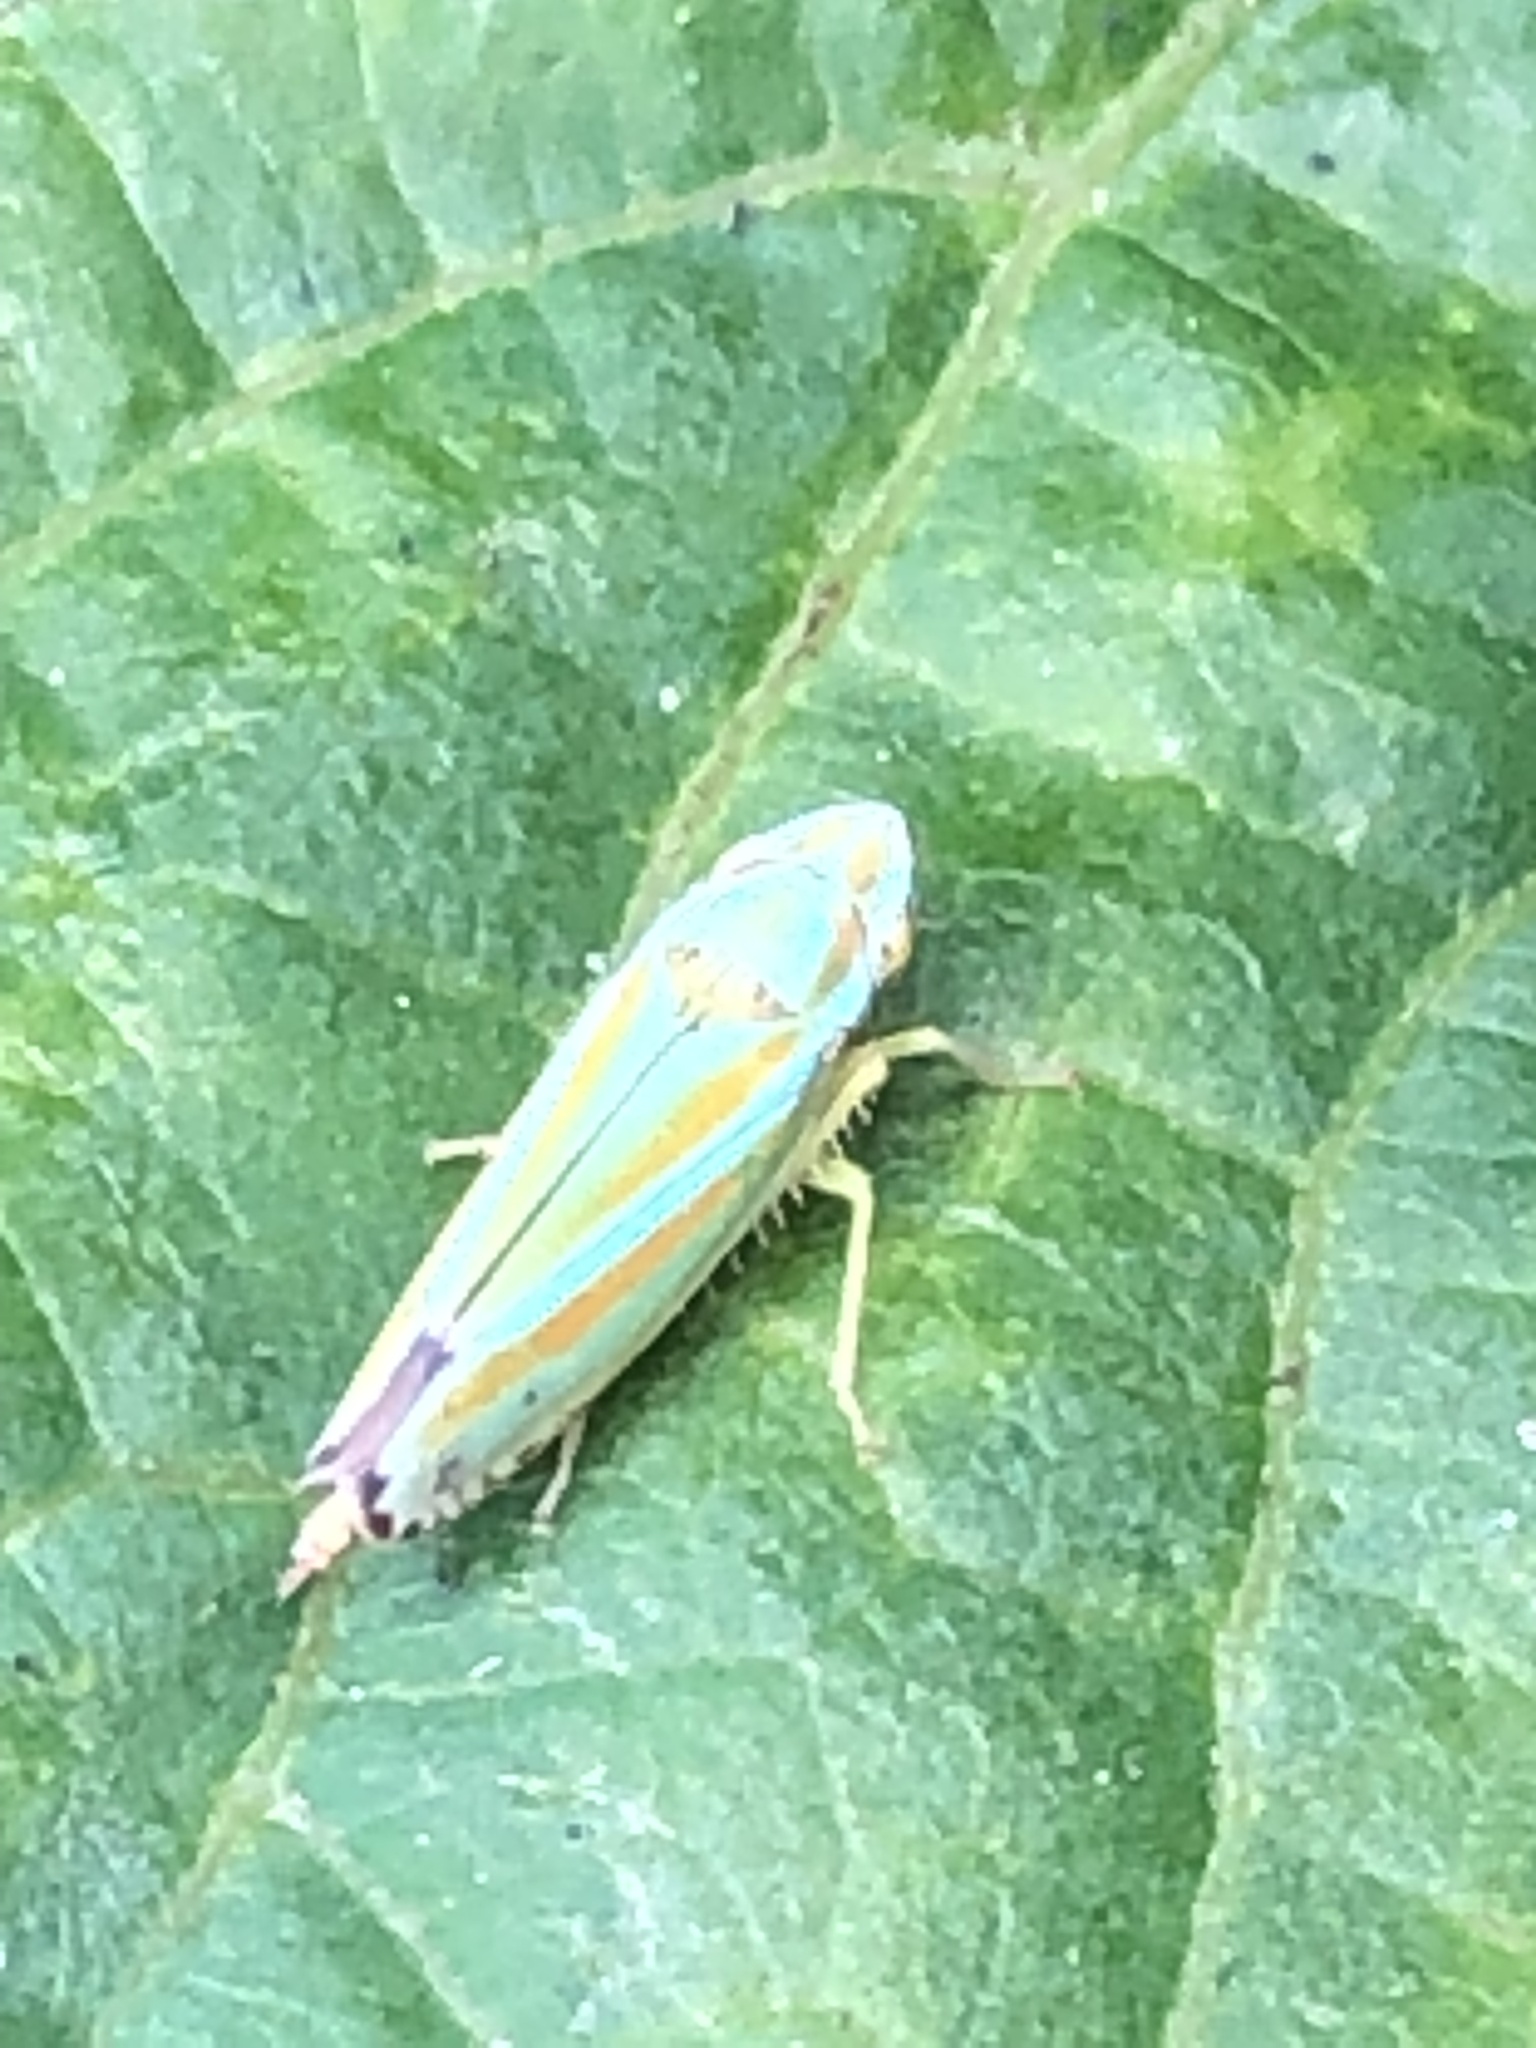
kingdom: Animalia
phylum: Arthropoda
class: Insecta
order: Hemiptera
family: Cicadellidae
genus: Graphocephala
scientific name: Graphocephala versuta
